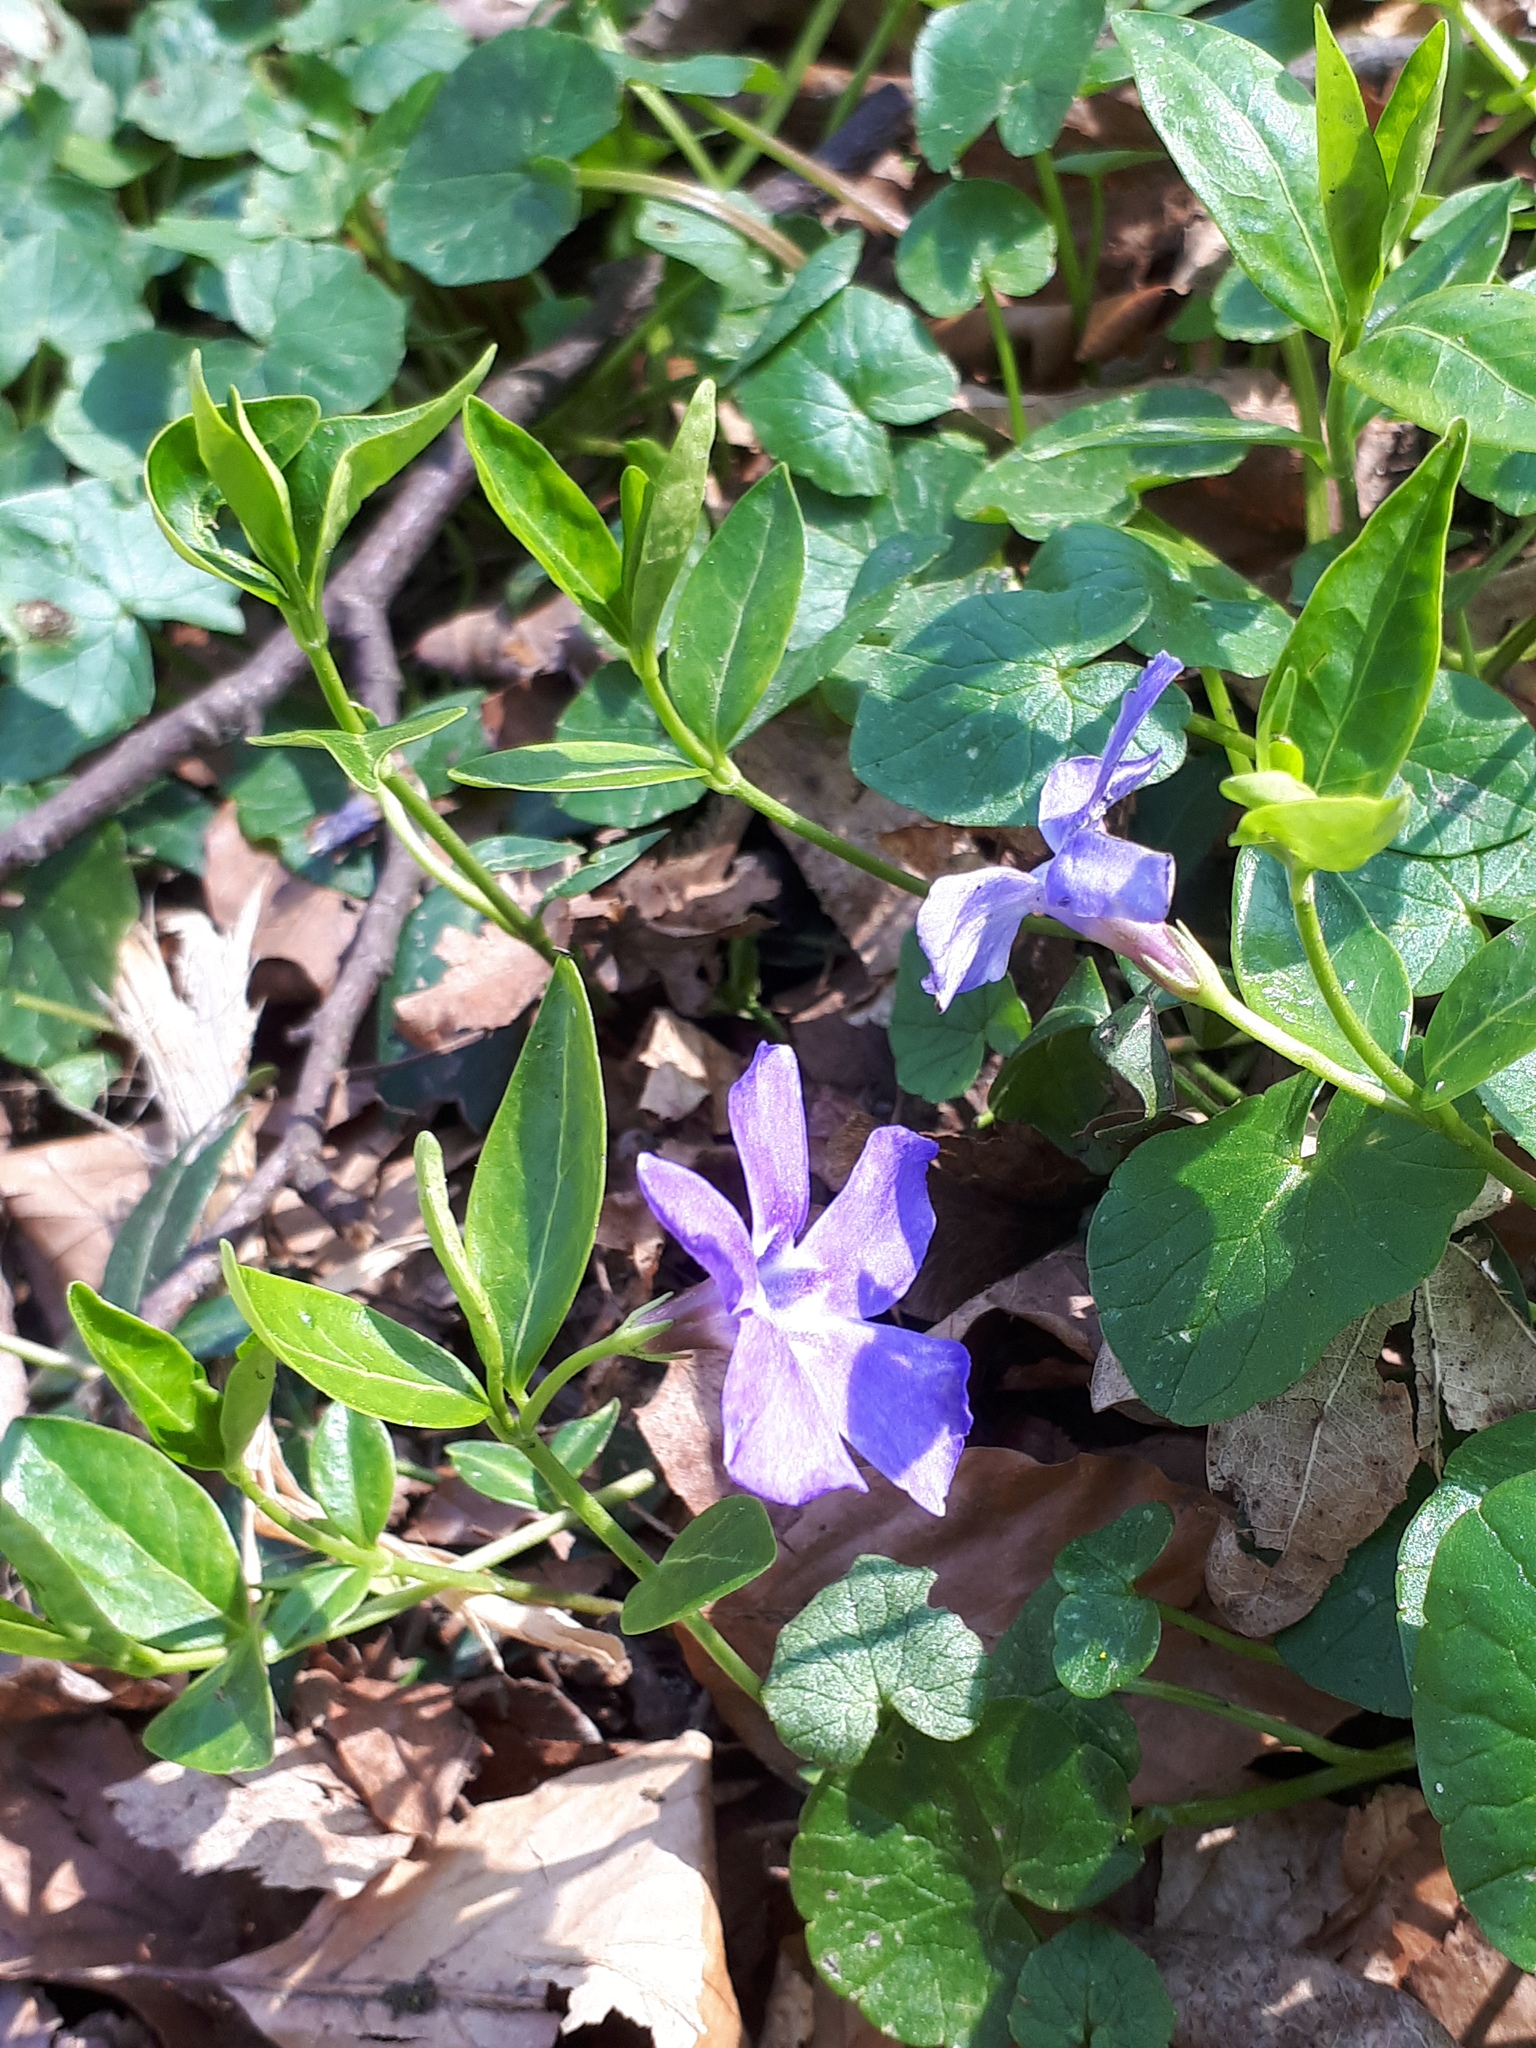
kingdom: Plantae
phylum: Tracheophyta
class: Magnoliopsida
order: Gentianales
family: Apocynaceae
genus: Vinca
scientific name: Vinca minor
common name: Lesser periwinkle
